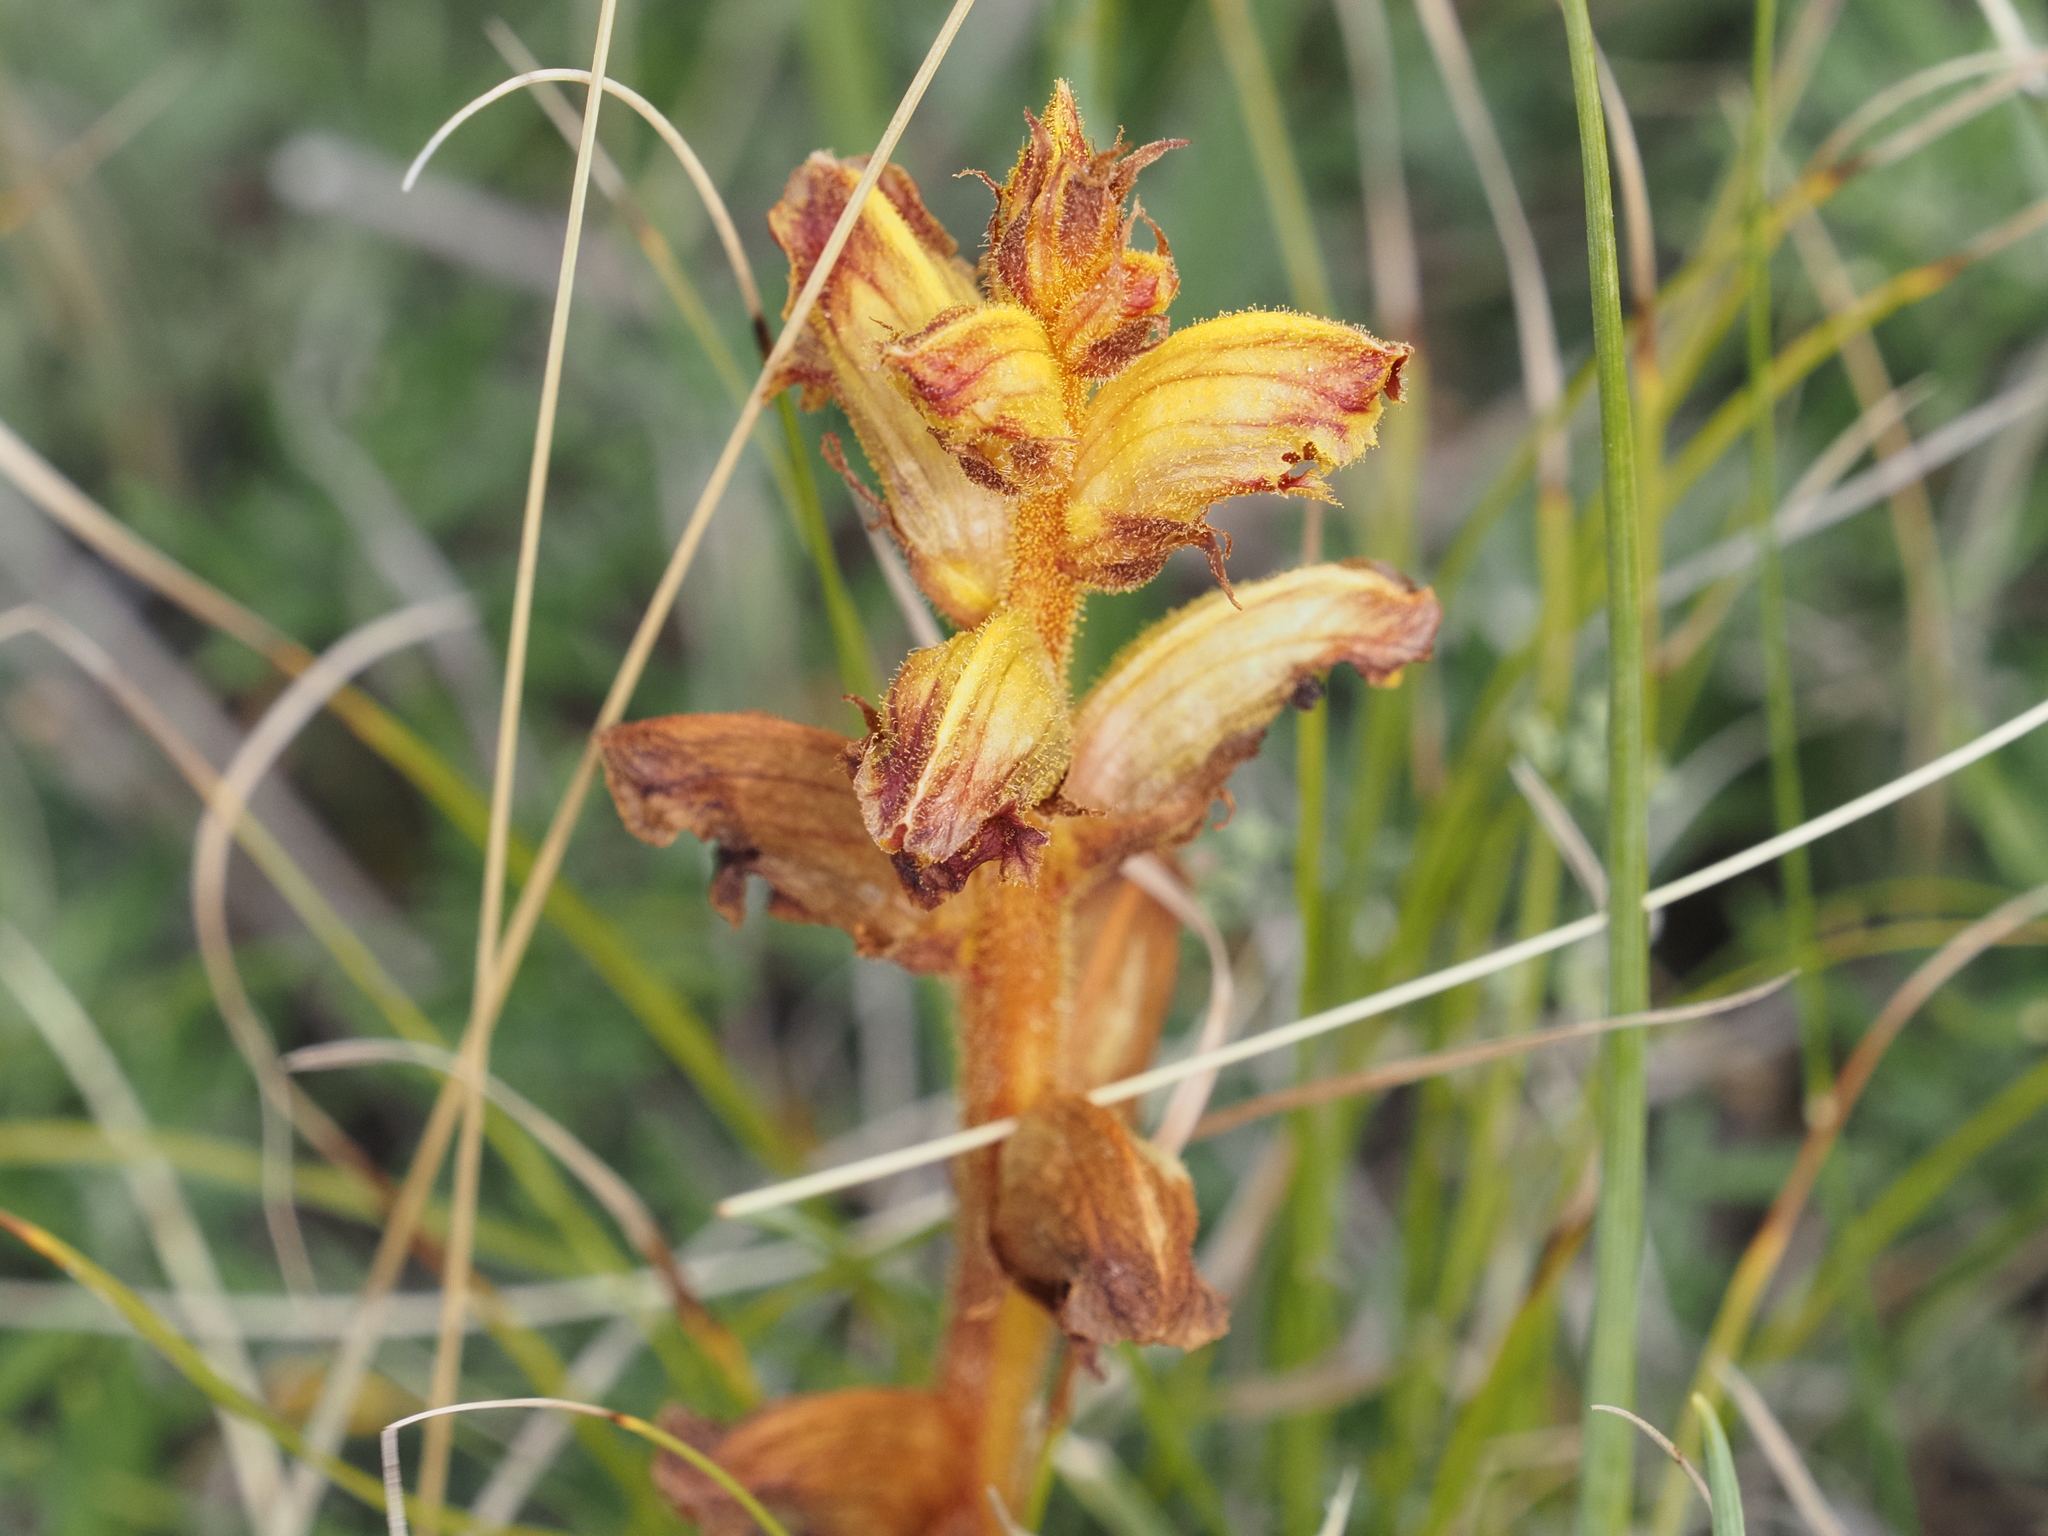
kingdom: Plantae
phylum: Tracheophyta
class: Magnoliopsida
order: Lamiales
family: Orobanchaceae
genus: Orobanche
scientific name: Orobanche gracilis
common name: Slender broomrape
